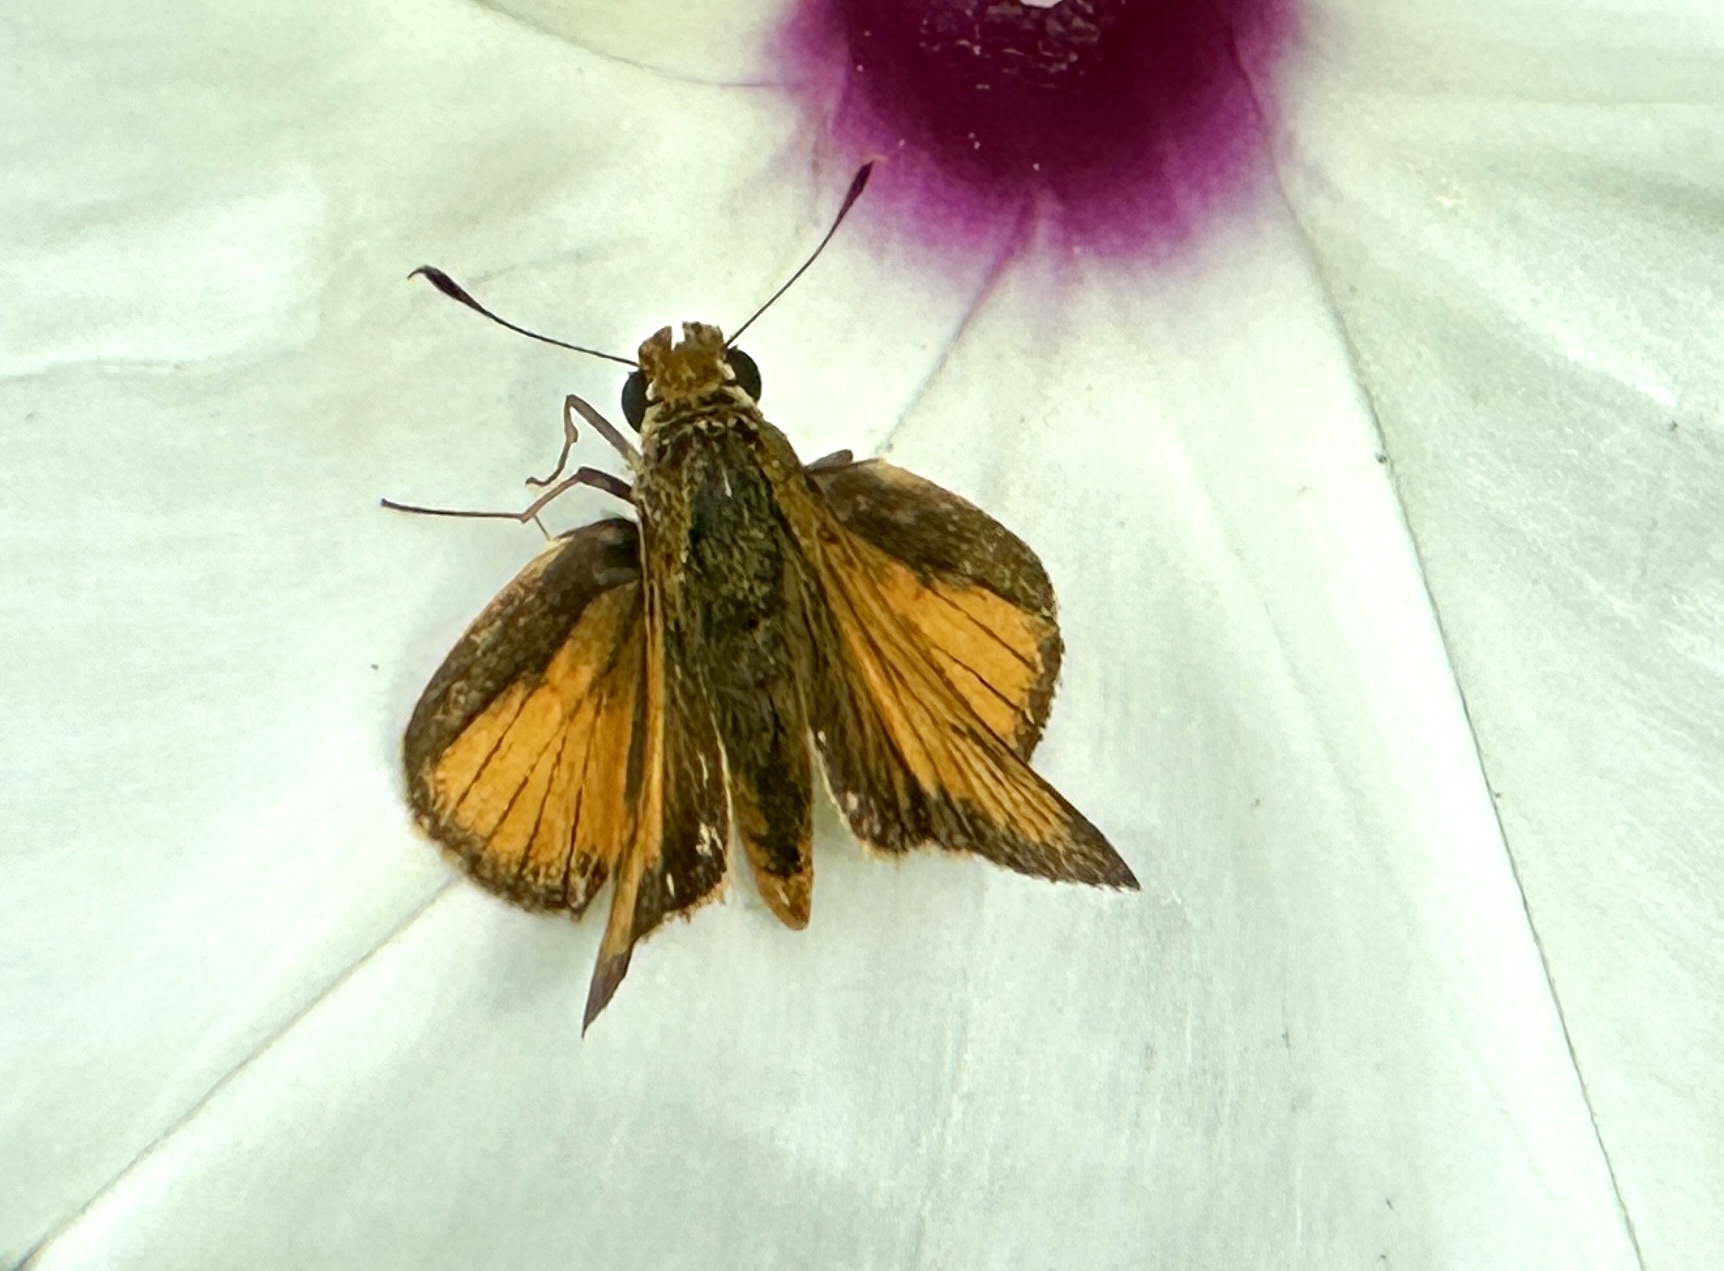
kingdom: Animalia
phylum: Arthropoda
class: Insecta
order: Lepidoptera
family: Hesperiidae
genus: Atrytone
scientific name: Atrytone delaware
